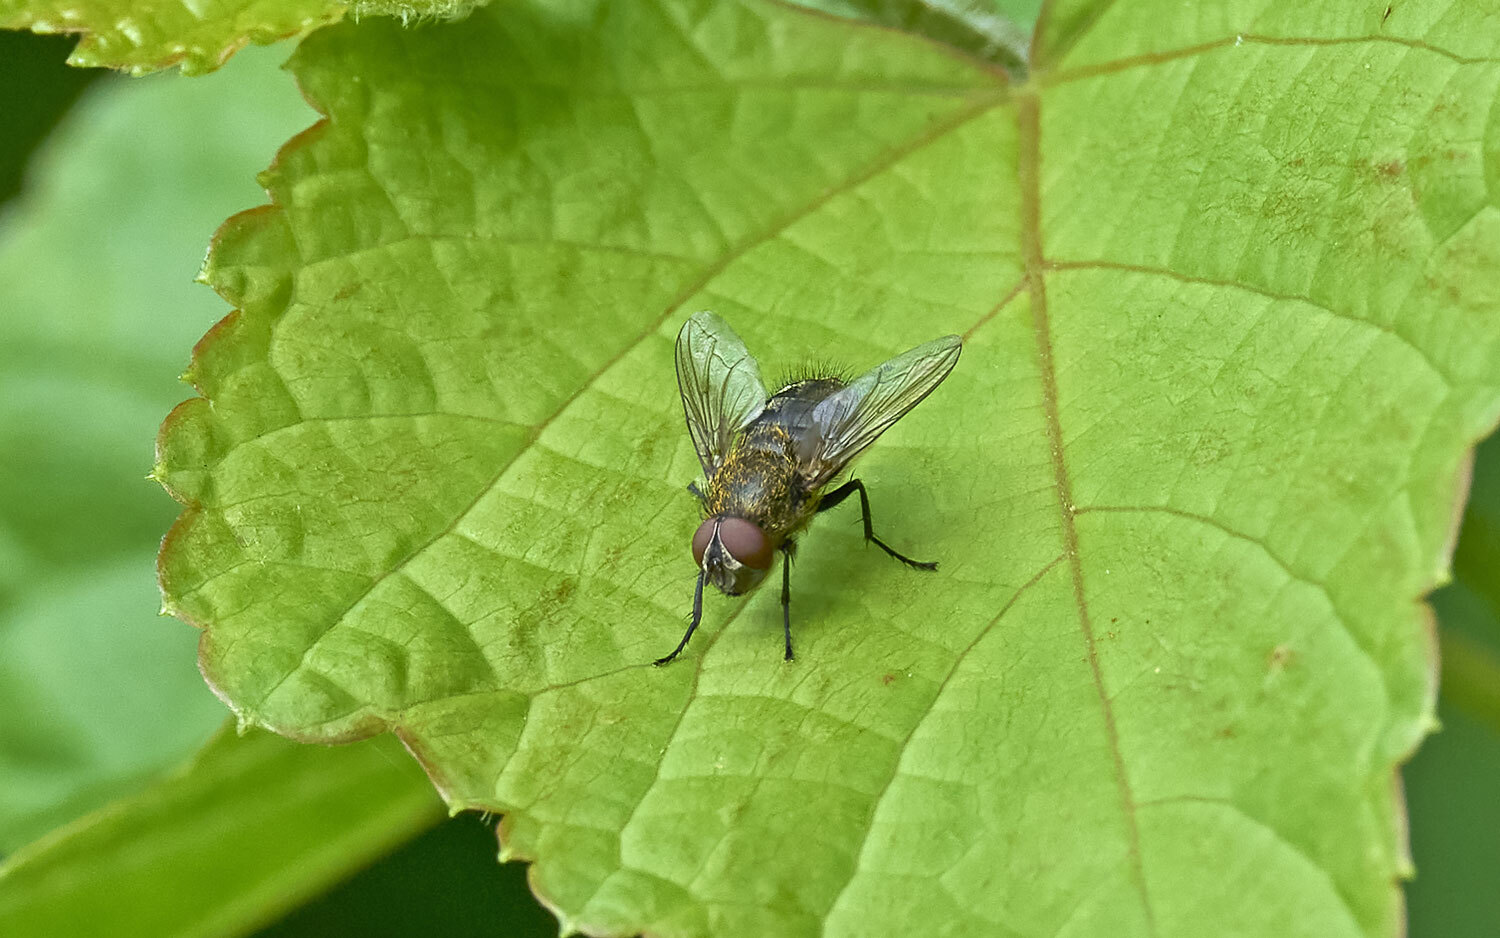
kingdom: Animalia
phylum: Arthropoda
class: Insecta
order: Diptera
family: Polleniidae
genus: Pollenia
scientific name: Pollenia
